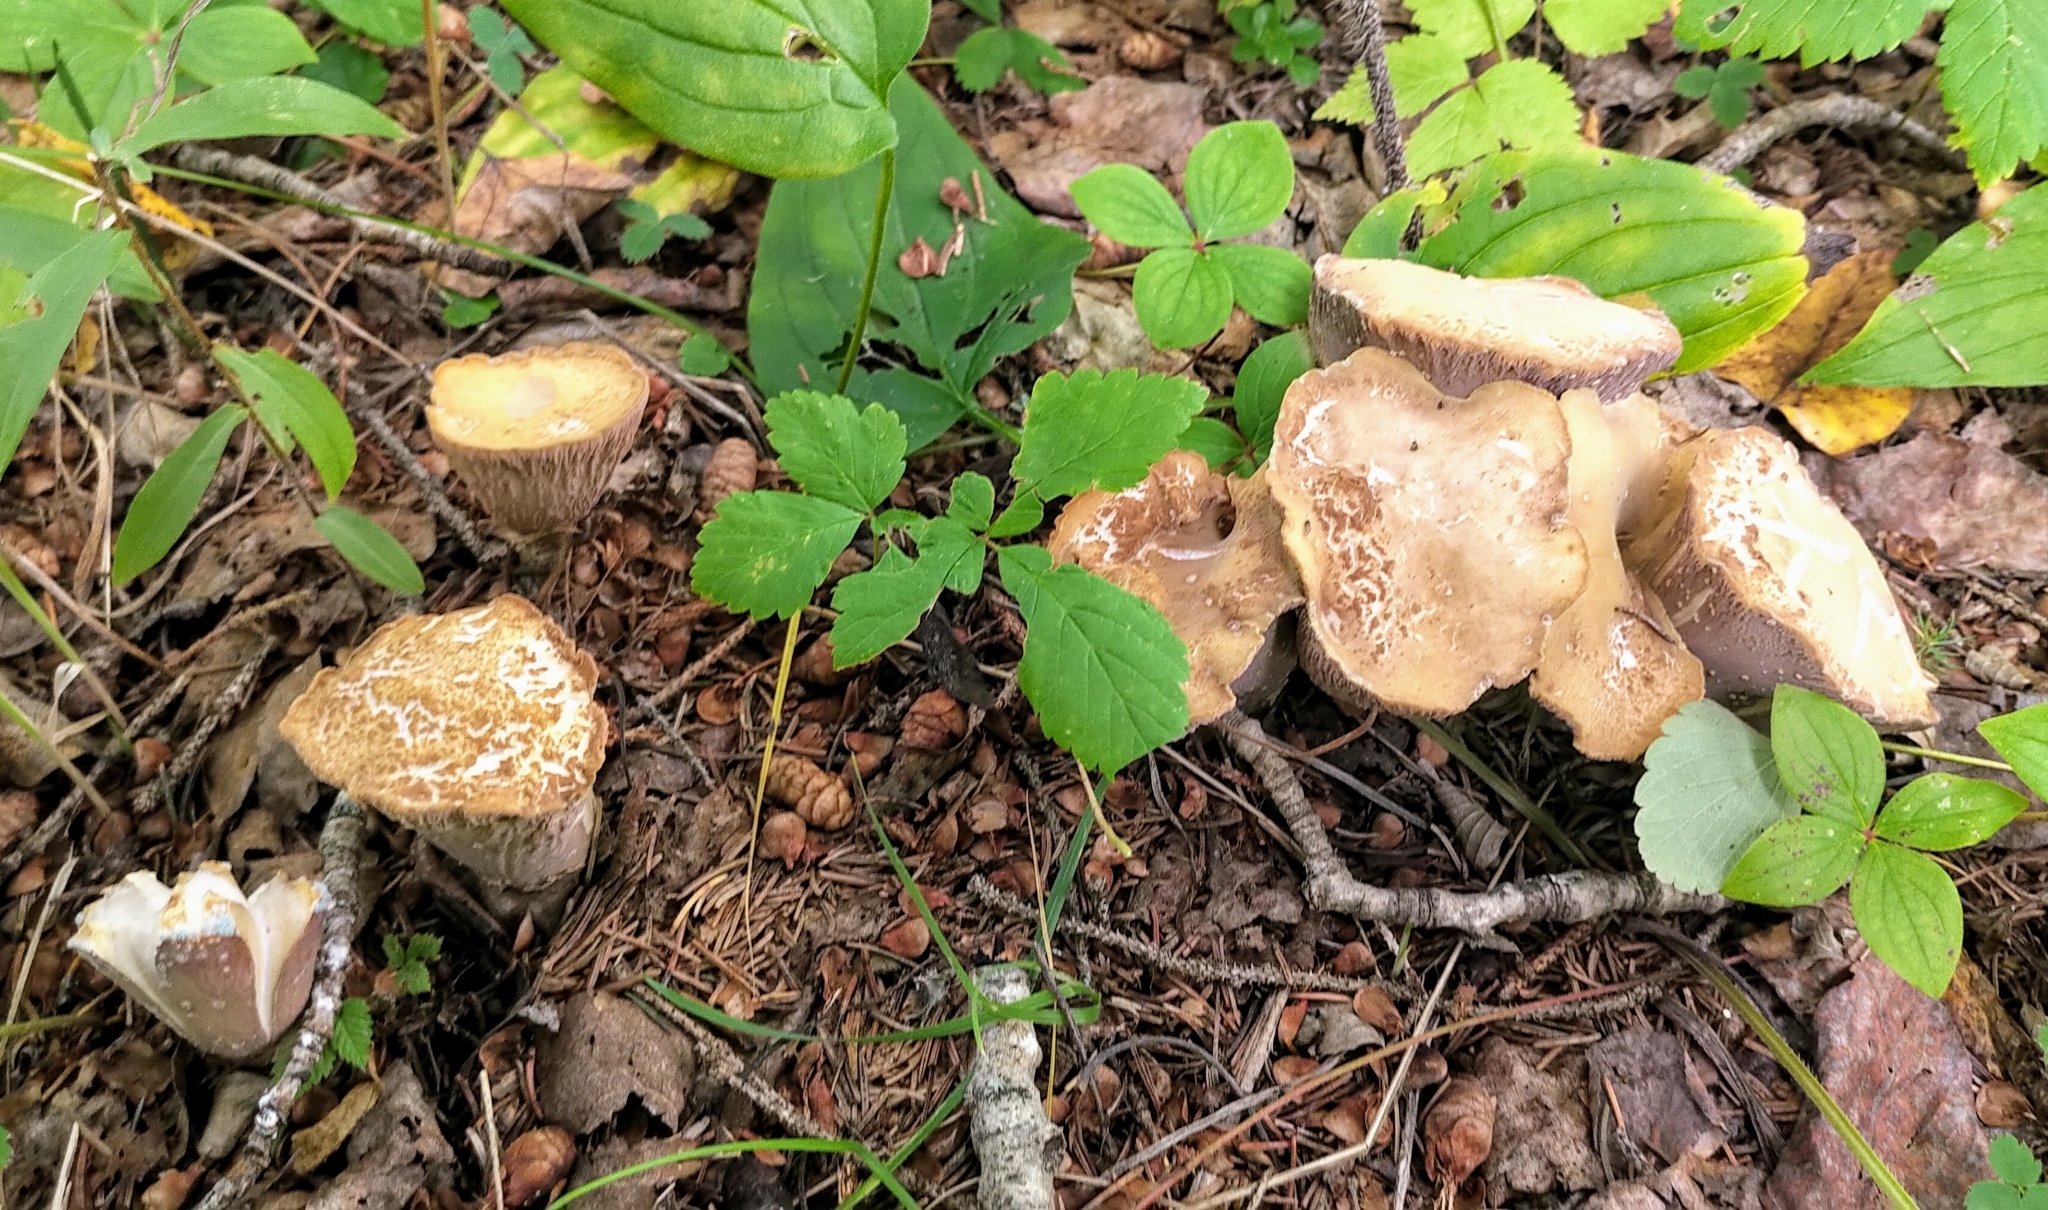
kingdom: Fungi
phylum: Basidiomycota
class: Agaricomycetes
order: Gomphales
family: Gomphaceae
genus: Gomphus
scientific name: Gomphus clavatus
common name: Pig's ear
